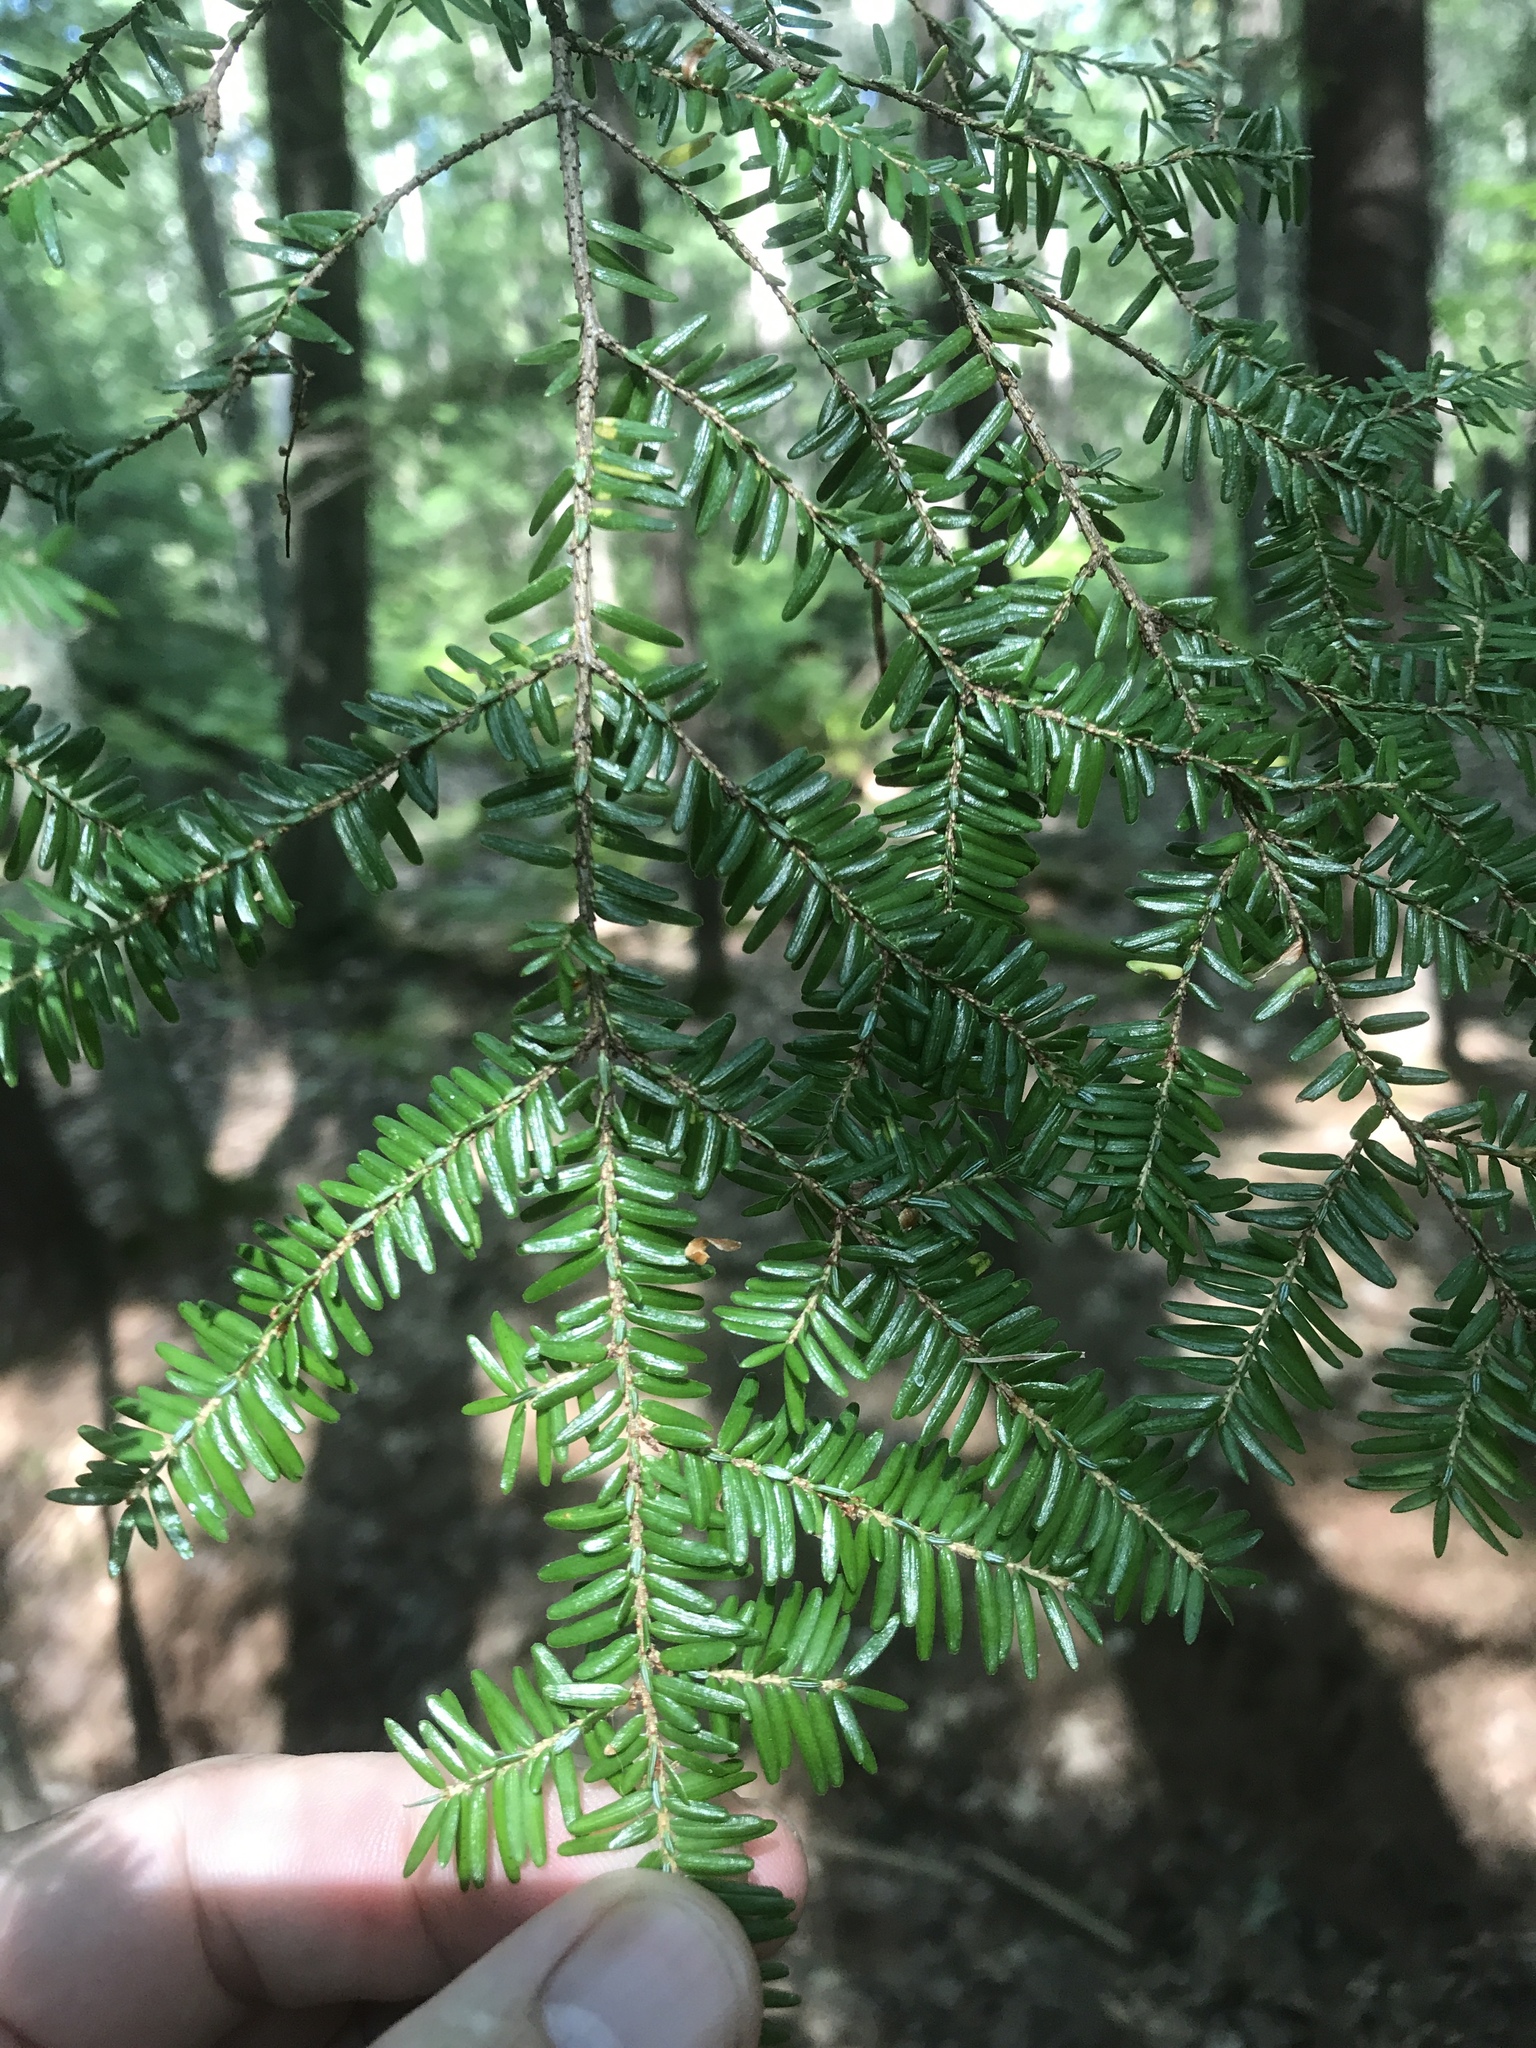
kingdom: Plantae
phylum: Tracheophyta
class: Pinopsida
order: Pinales
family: Pinaceae
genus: Tsuga
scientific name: Tsuga canadensis
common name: Eastern hemlock
